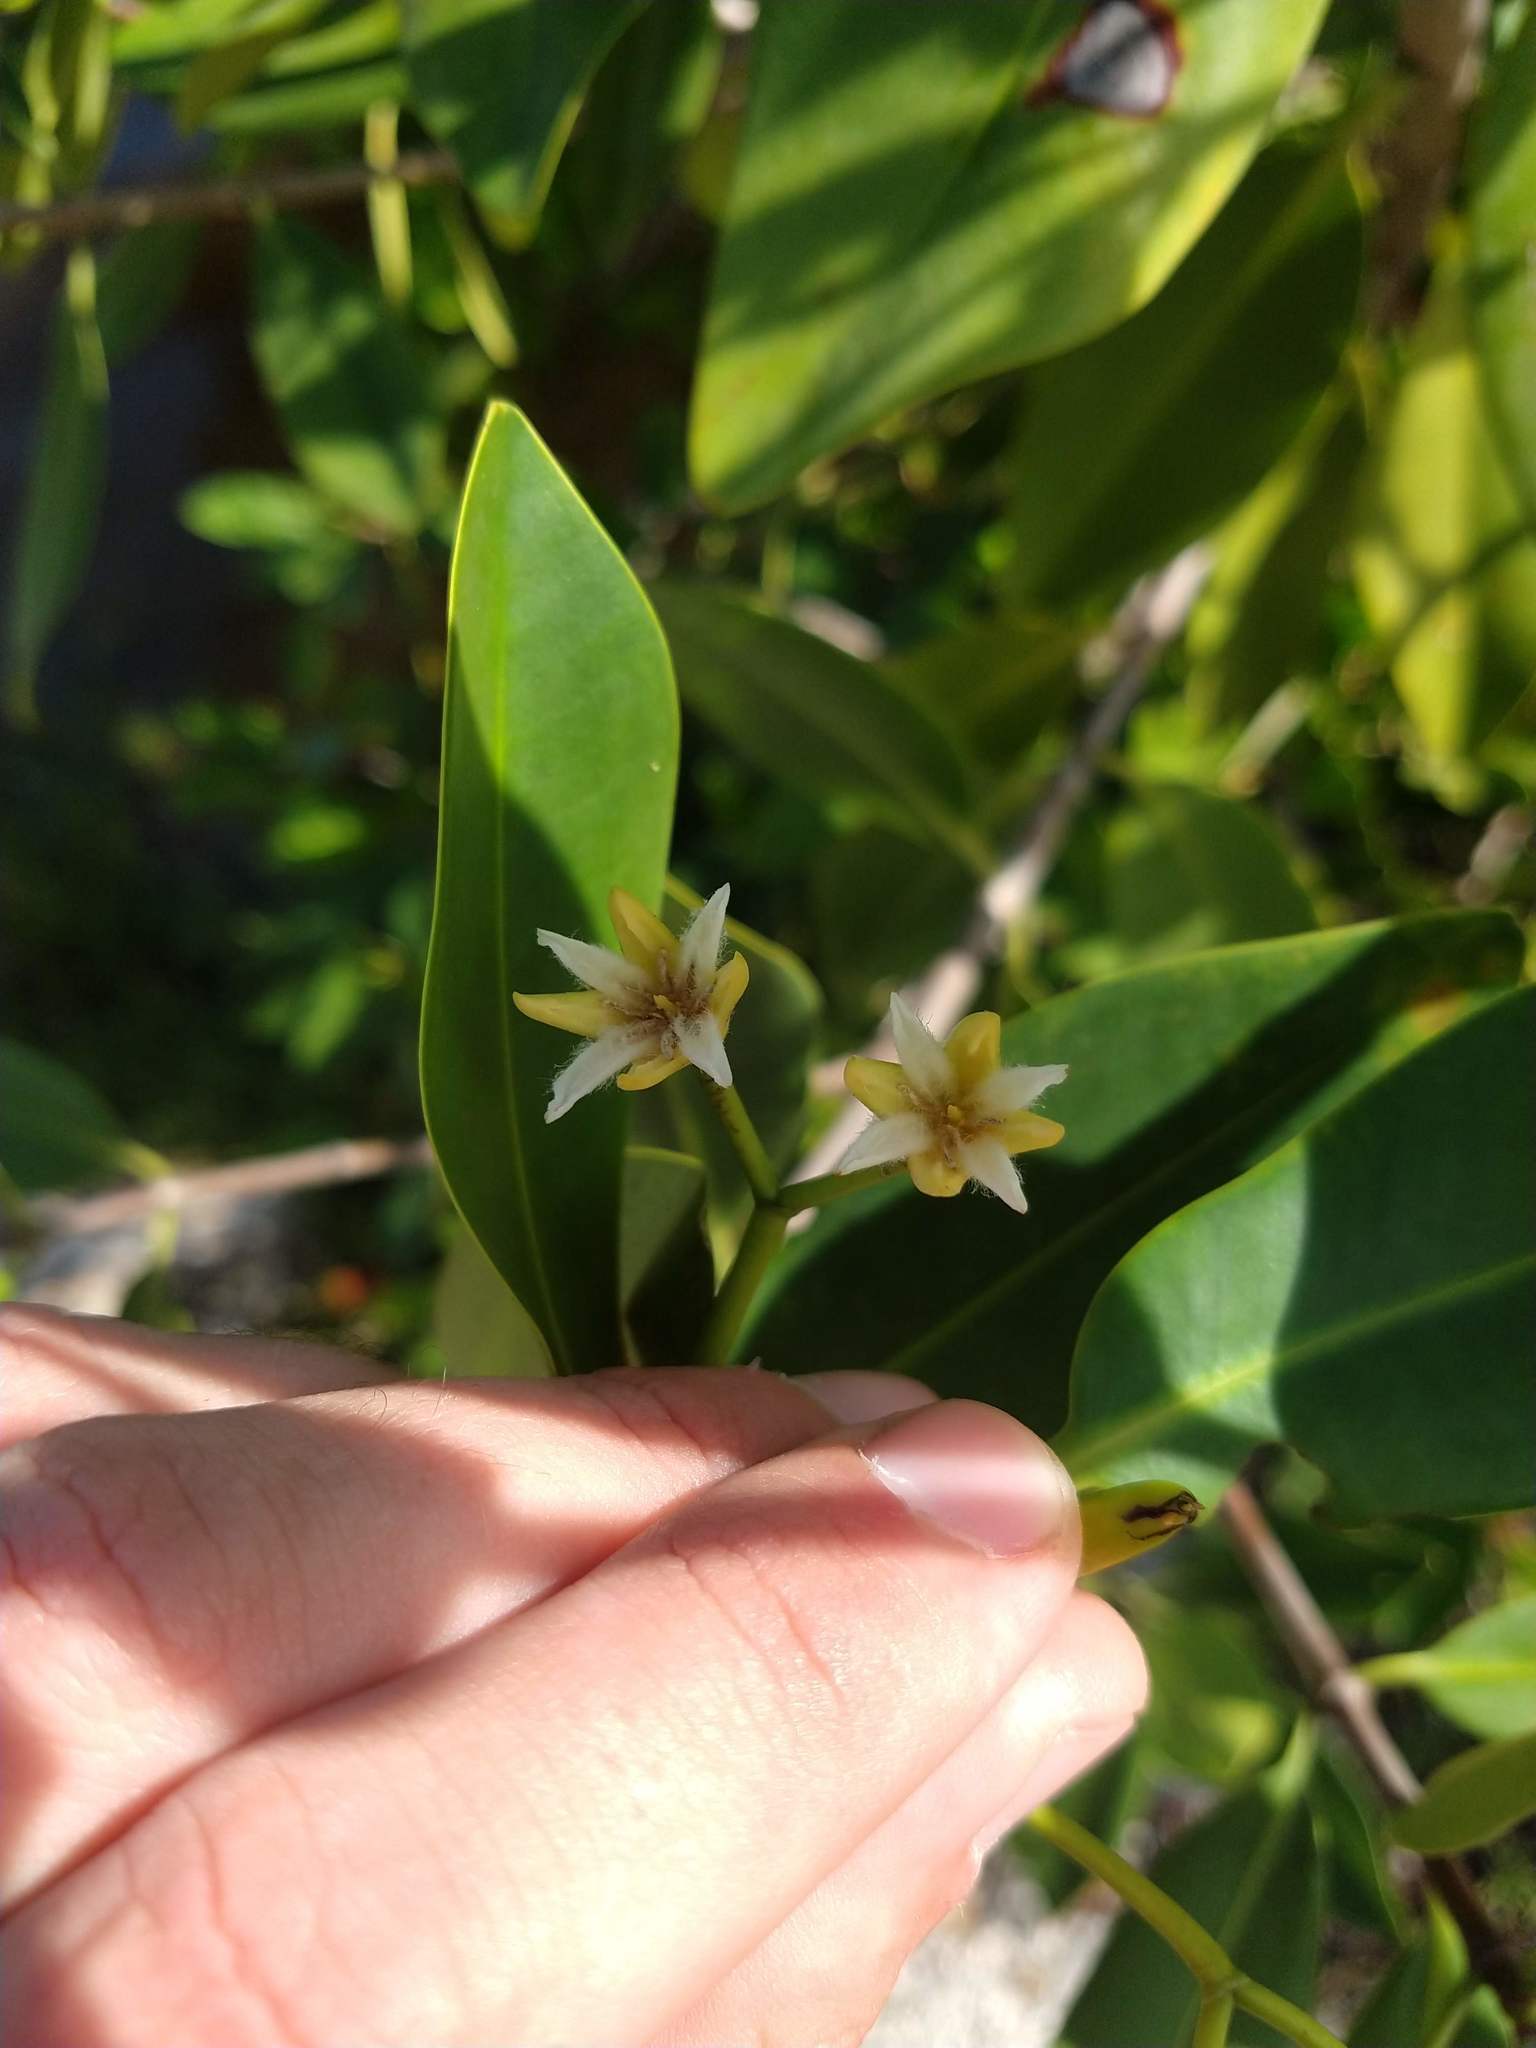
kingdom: Plantae
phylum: Tracheophyta
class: Magnoliopsida
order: Malpighiales
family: Rhizophoraceae
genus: Rhizophora
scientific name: Rhizophora mangle
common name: Red mangrove
